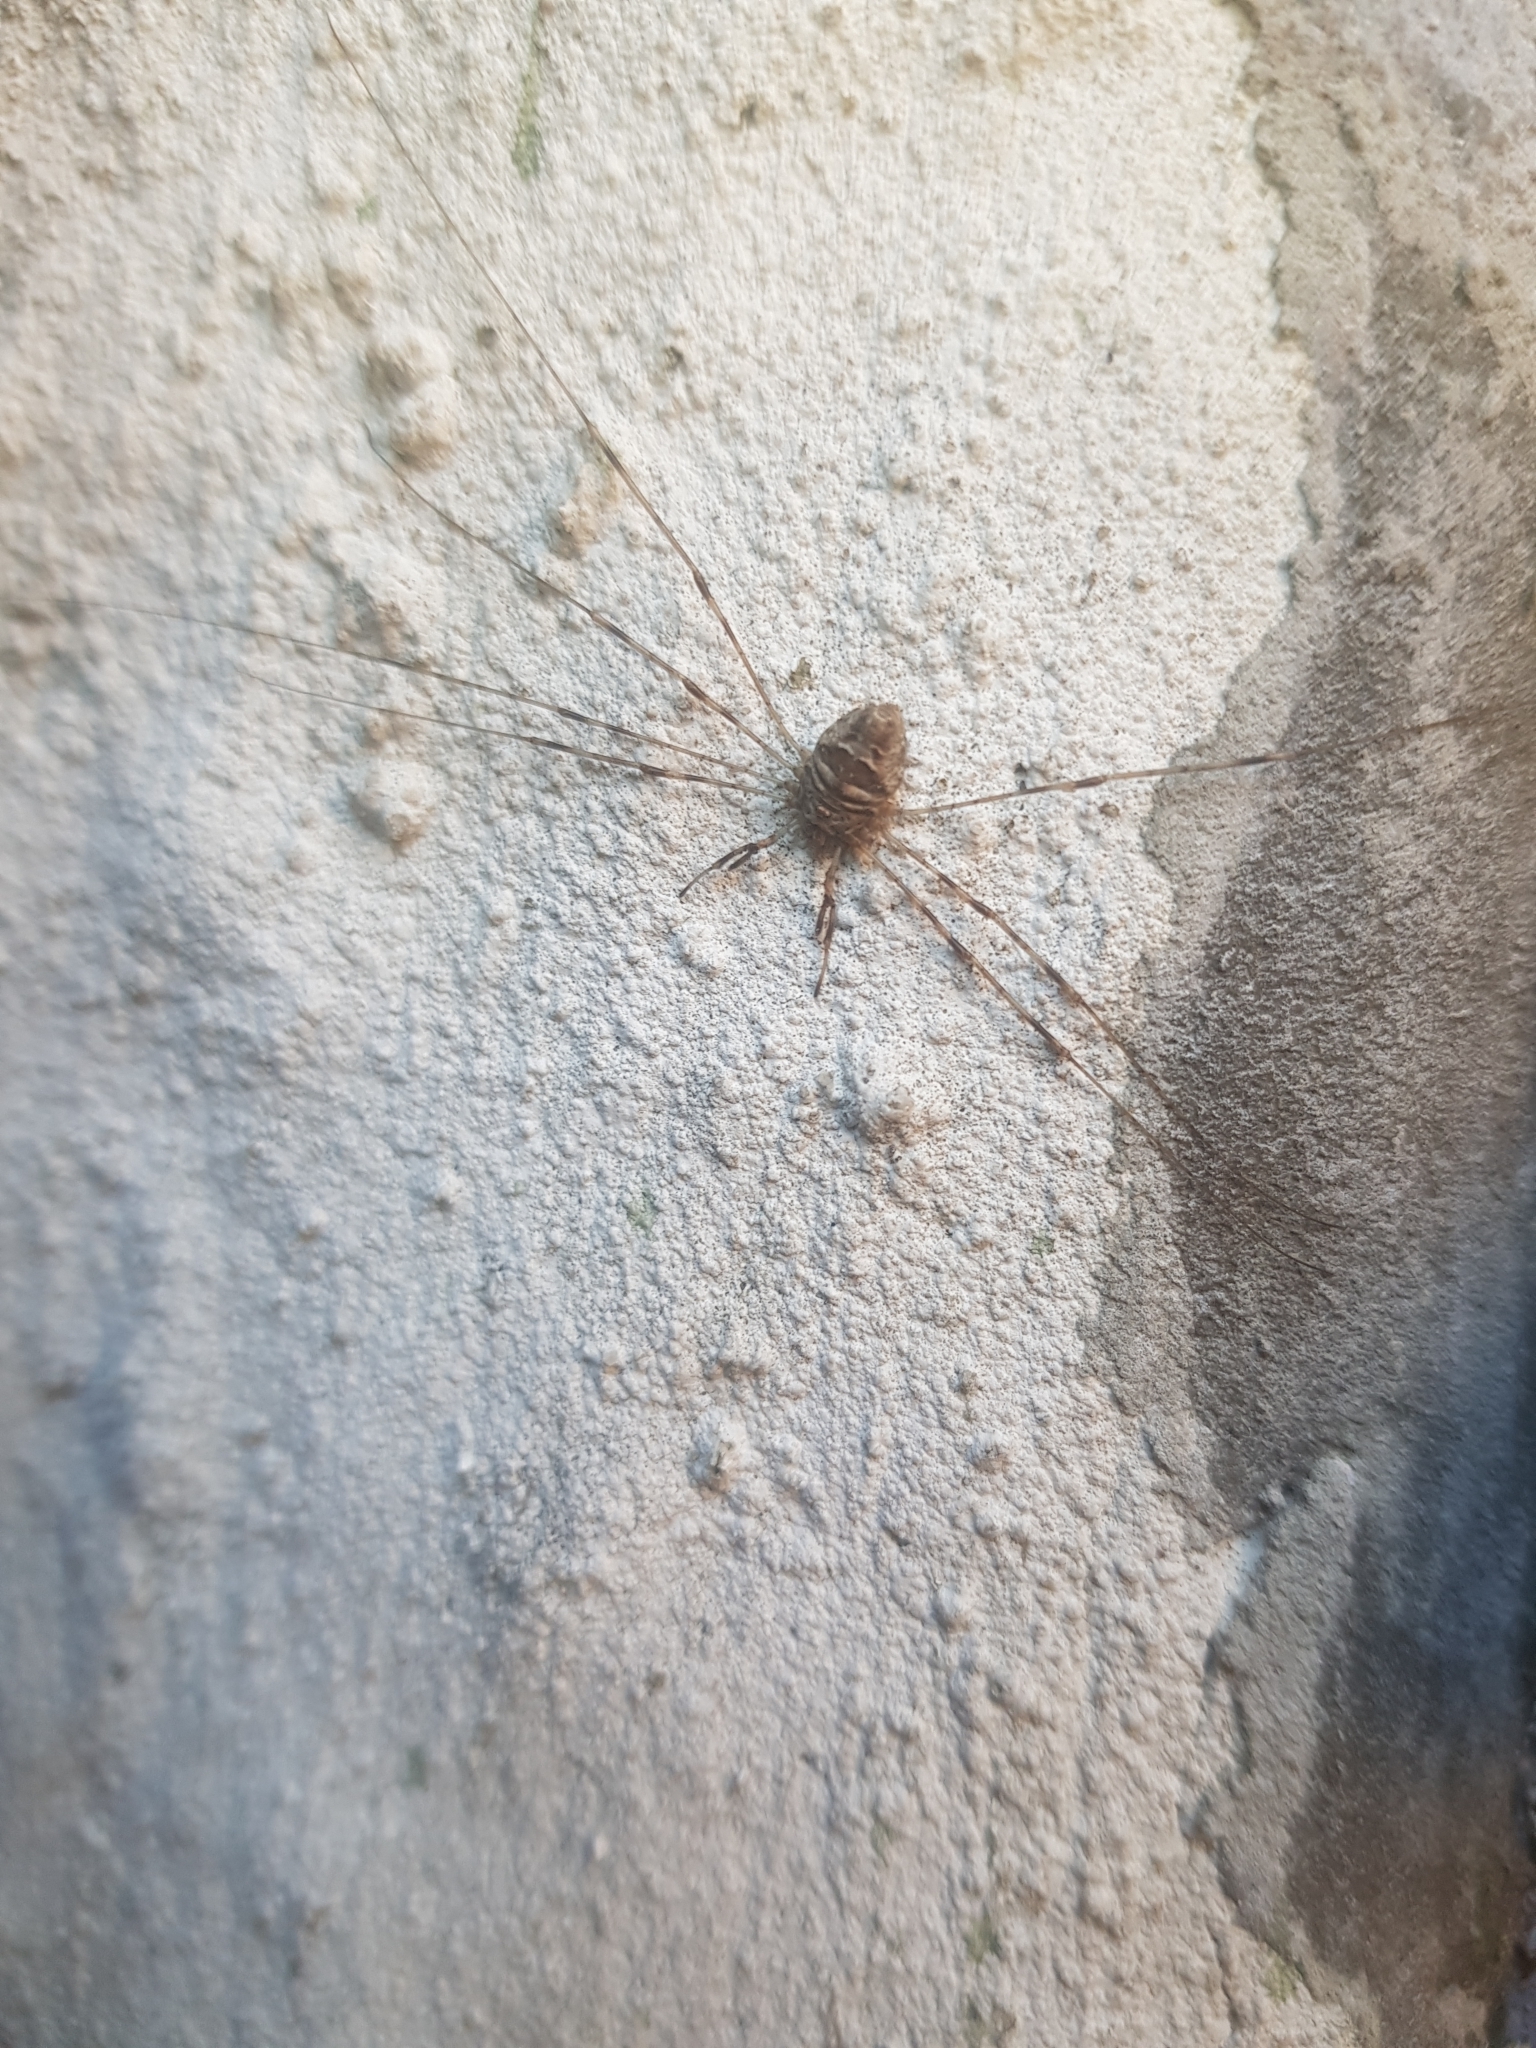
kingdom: Animalia
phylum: Arthropoda
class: Arachnida
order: Opiliones
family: Phalangiidae
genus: Dicranopalpus
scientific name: Dicranopalpus ramosus
